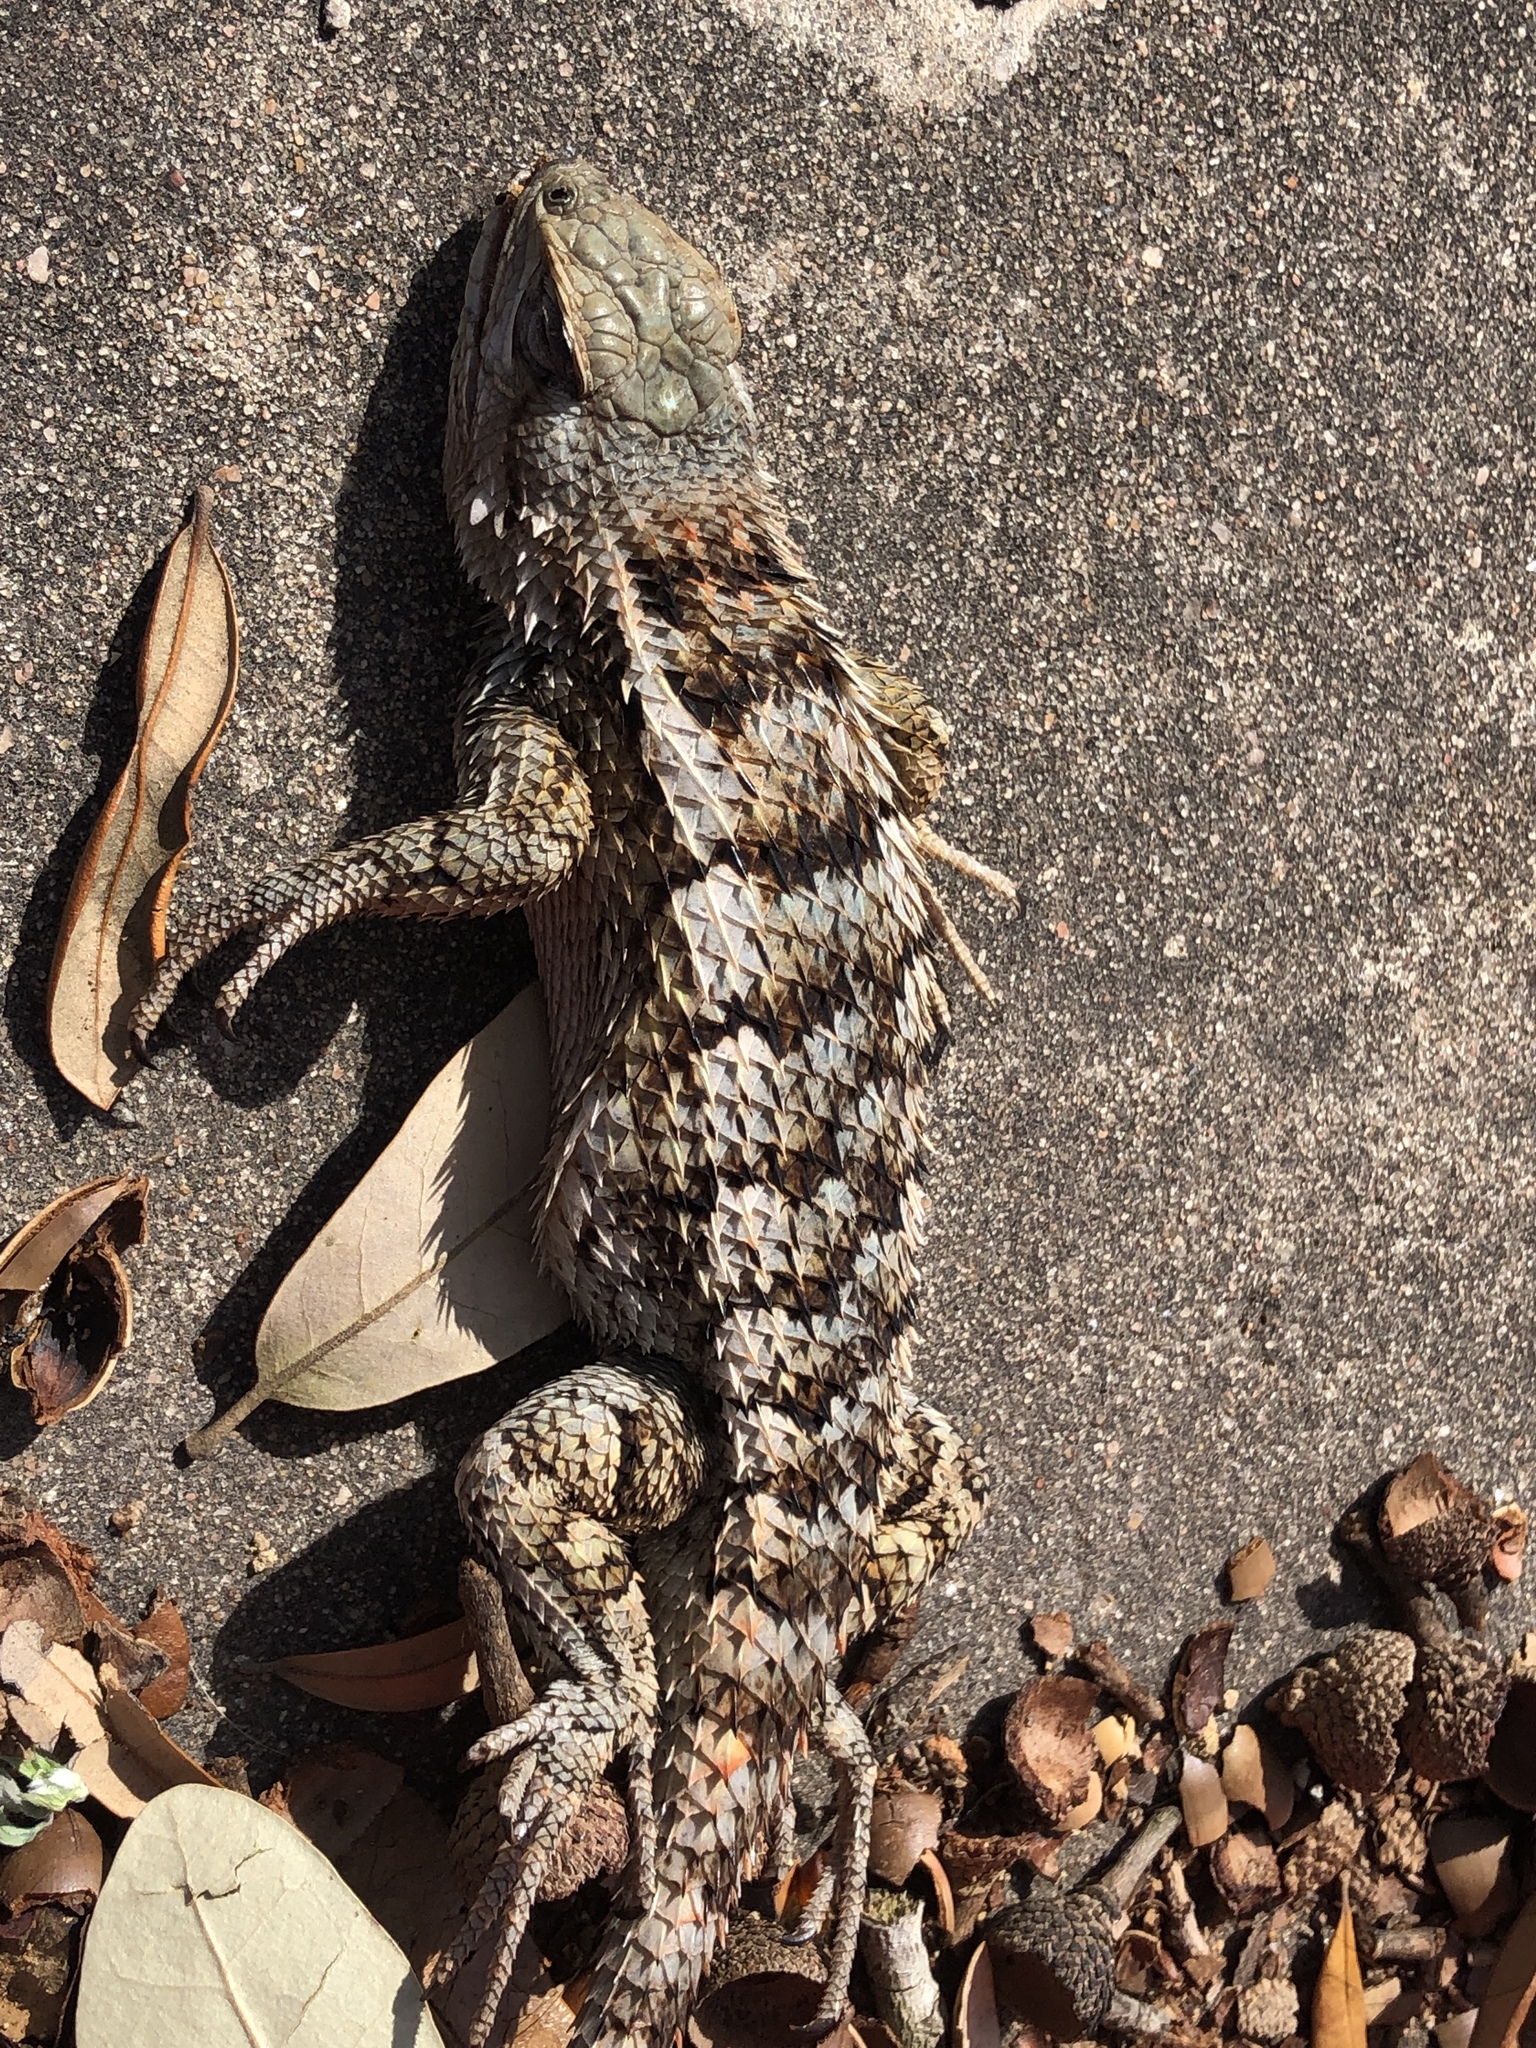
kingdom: Animalia
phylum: Chordata
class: Squamata
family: Phrynosomatidae
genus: Sceloporus
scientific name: Sceloporus olivaceus
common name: Texas spiny lizard
